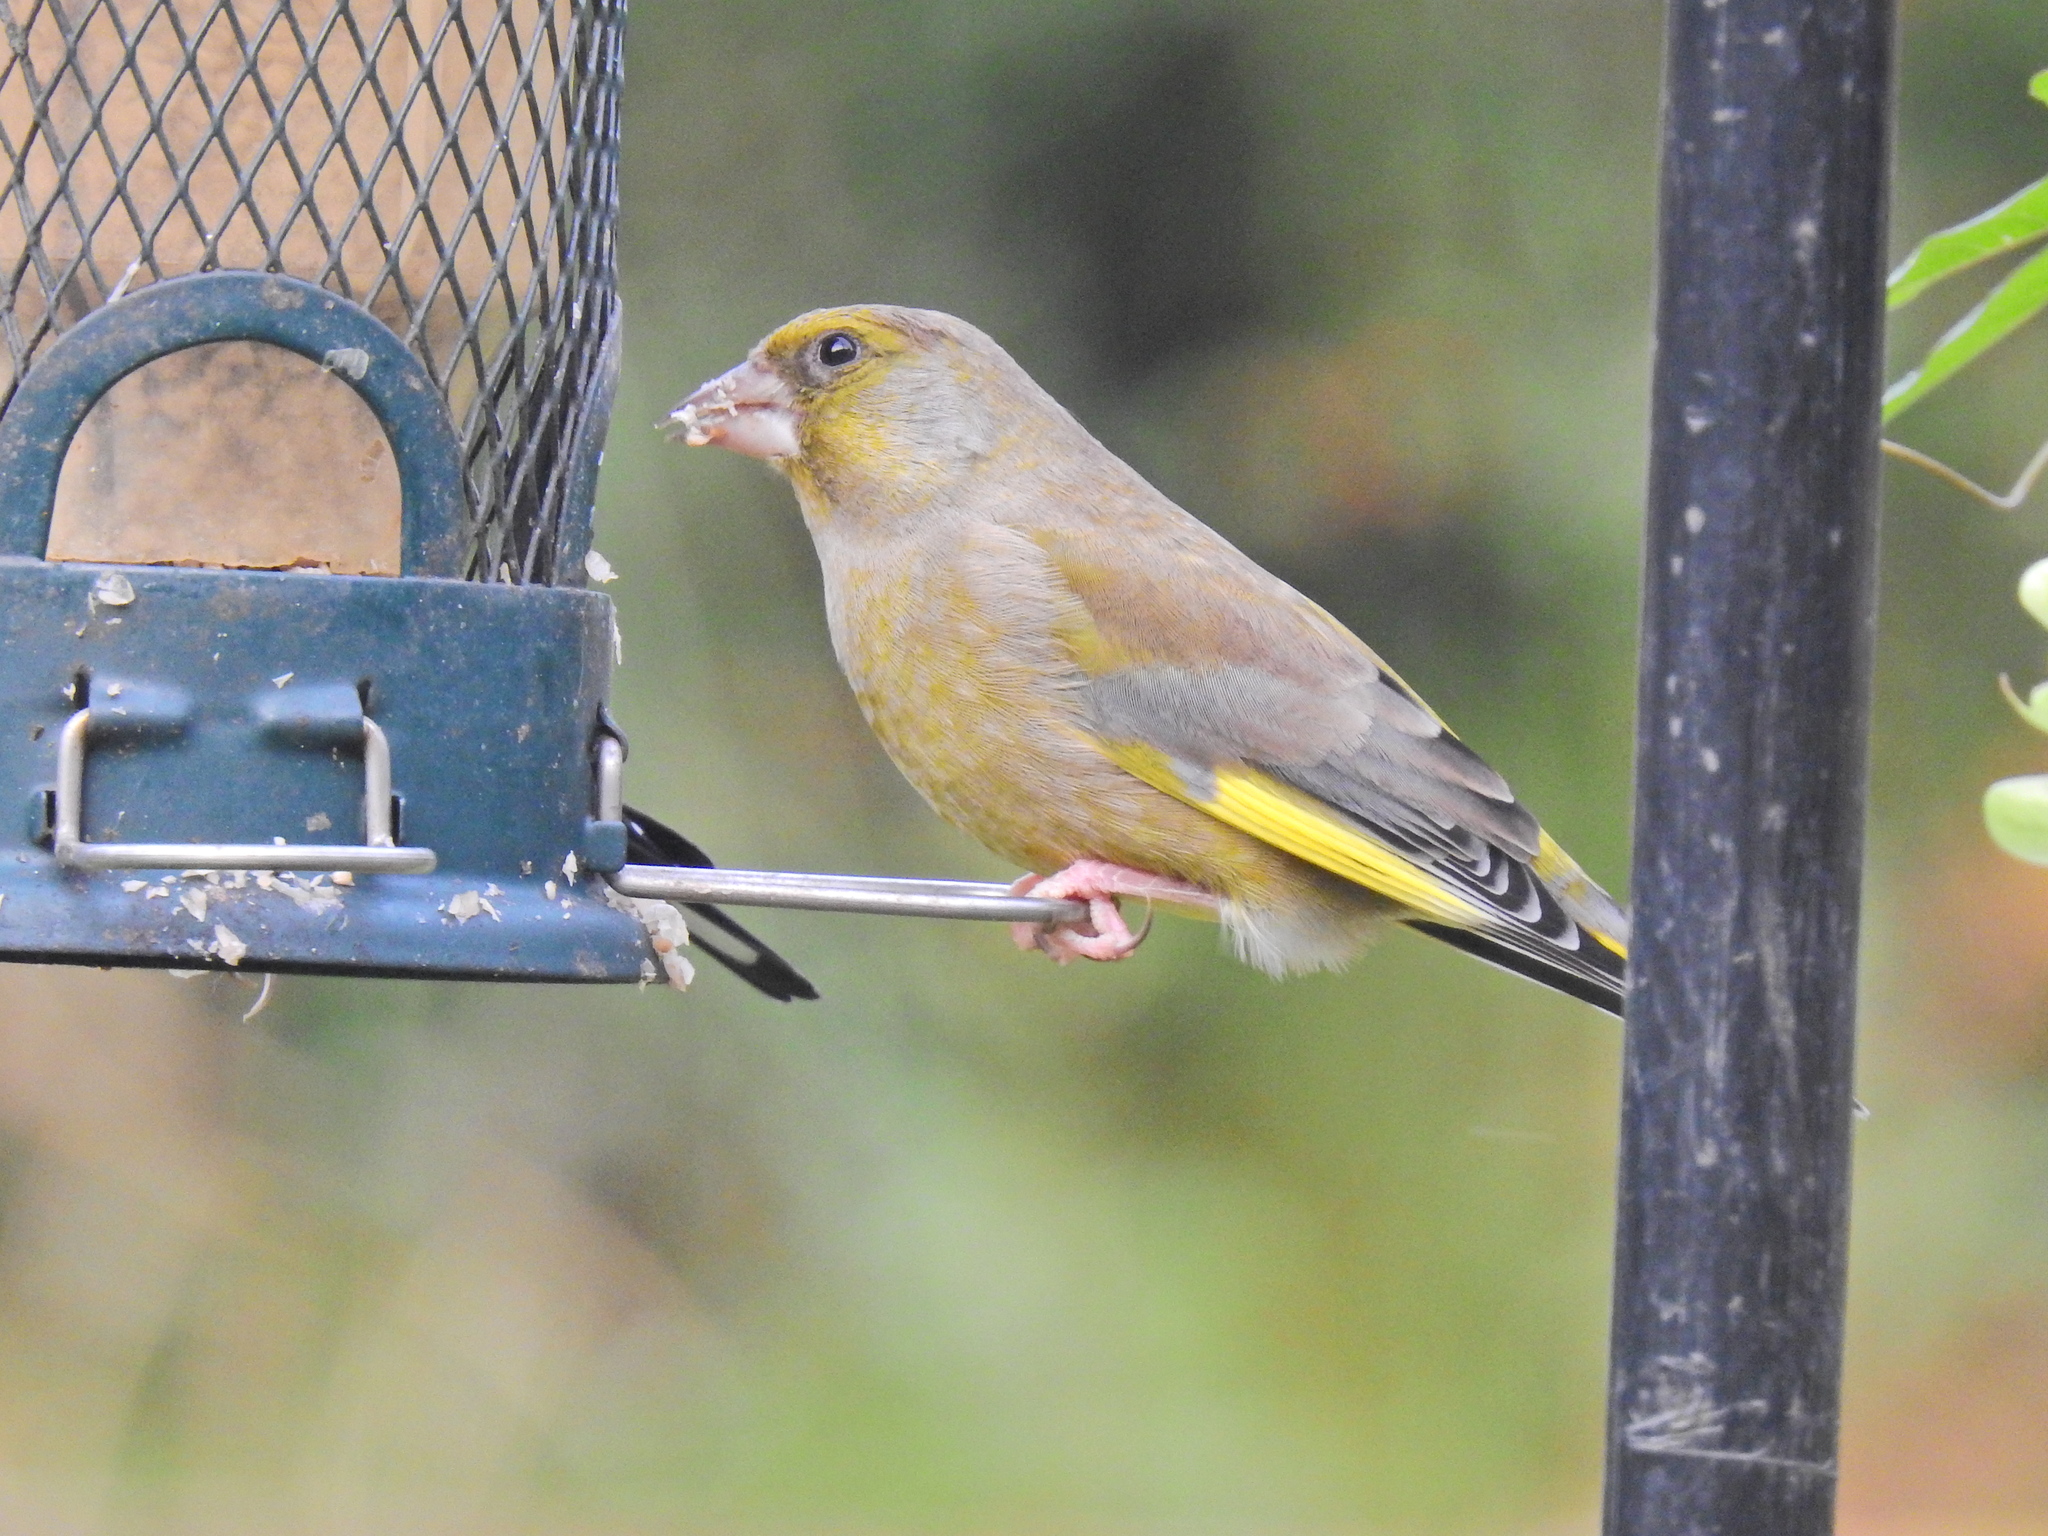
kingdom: Plantae
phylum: Tracheophyta
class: Liliopsida
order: Poales
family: Poaceae
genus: Chloris
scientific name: Chloris chloris
